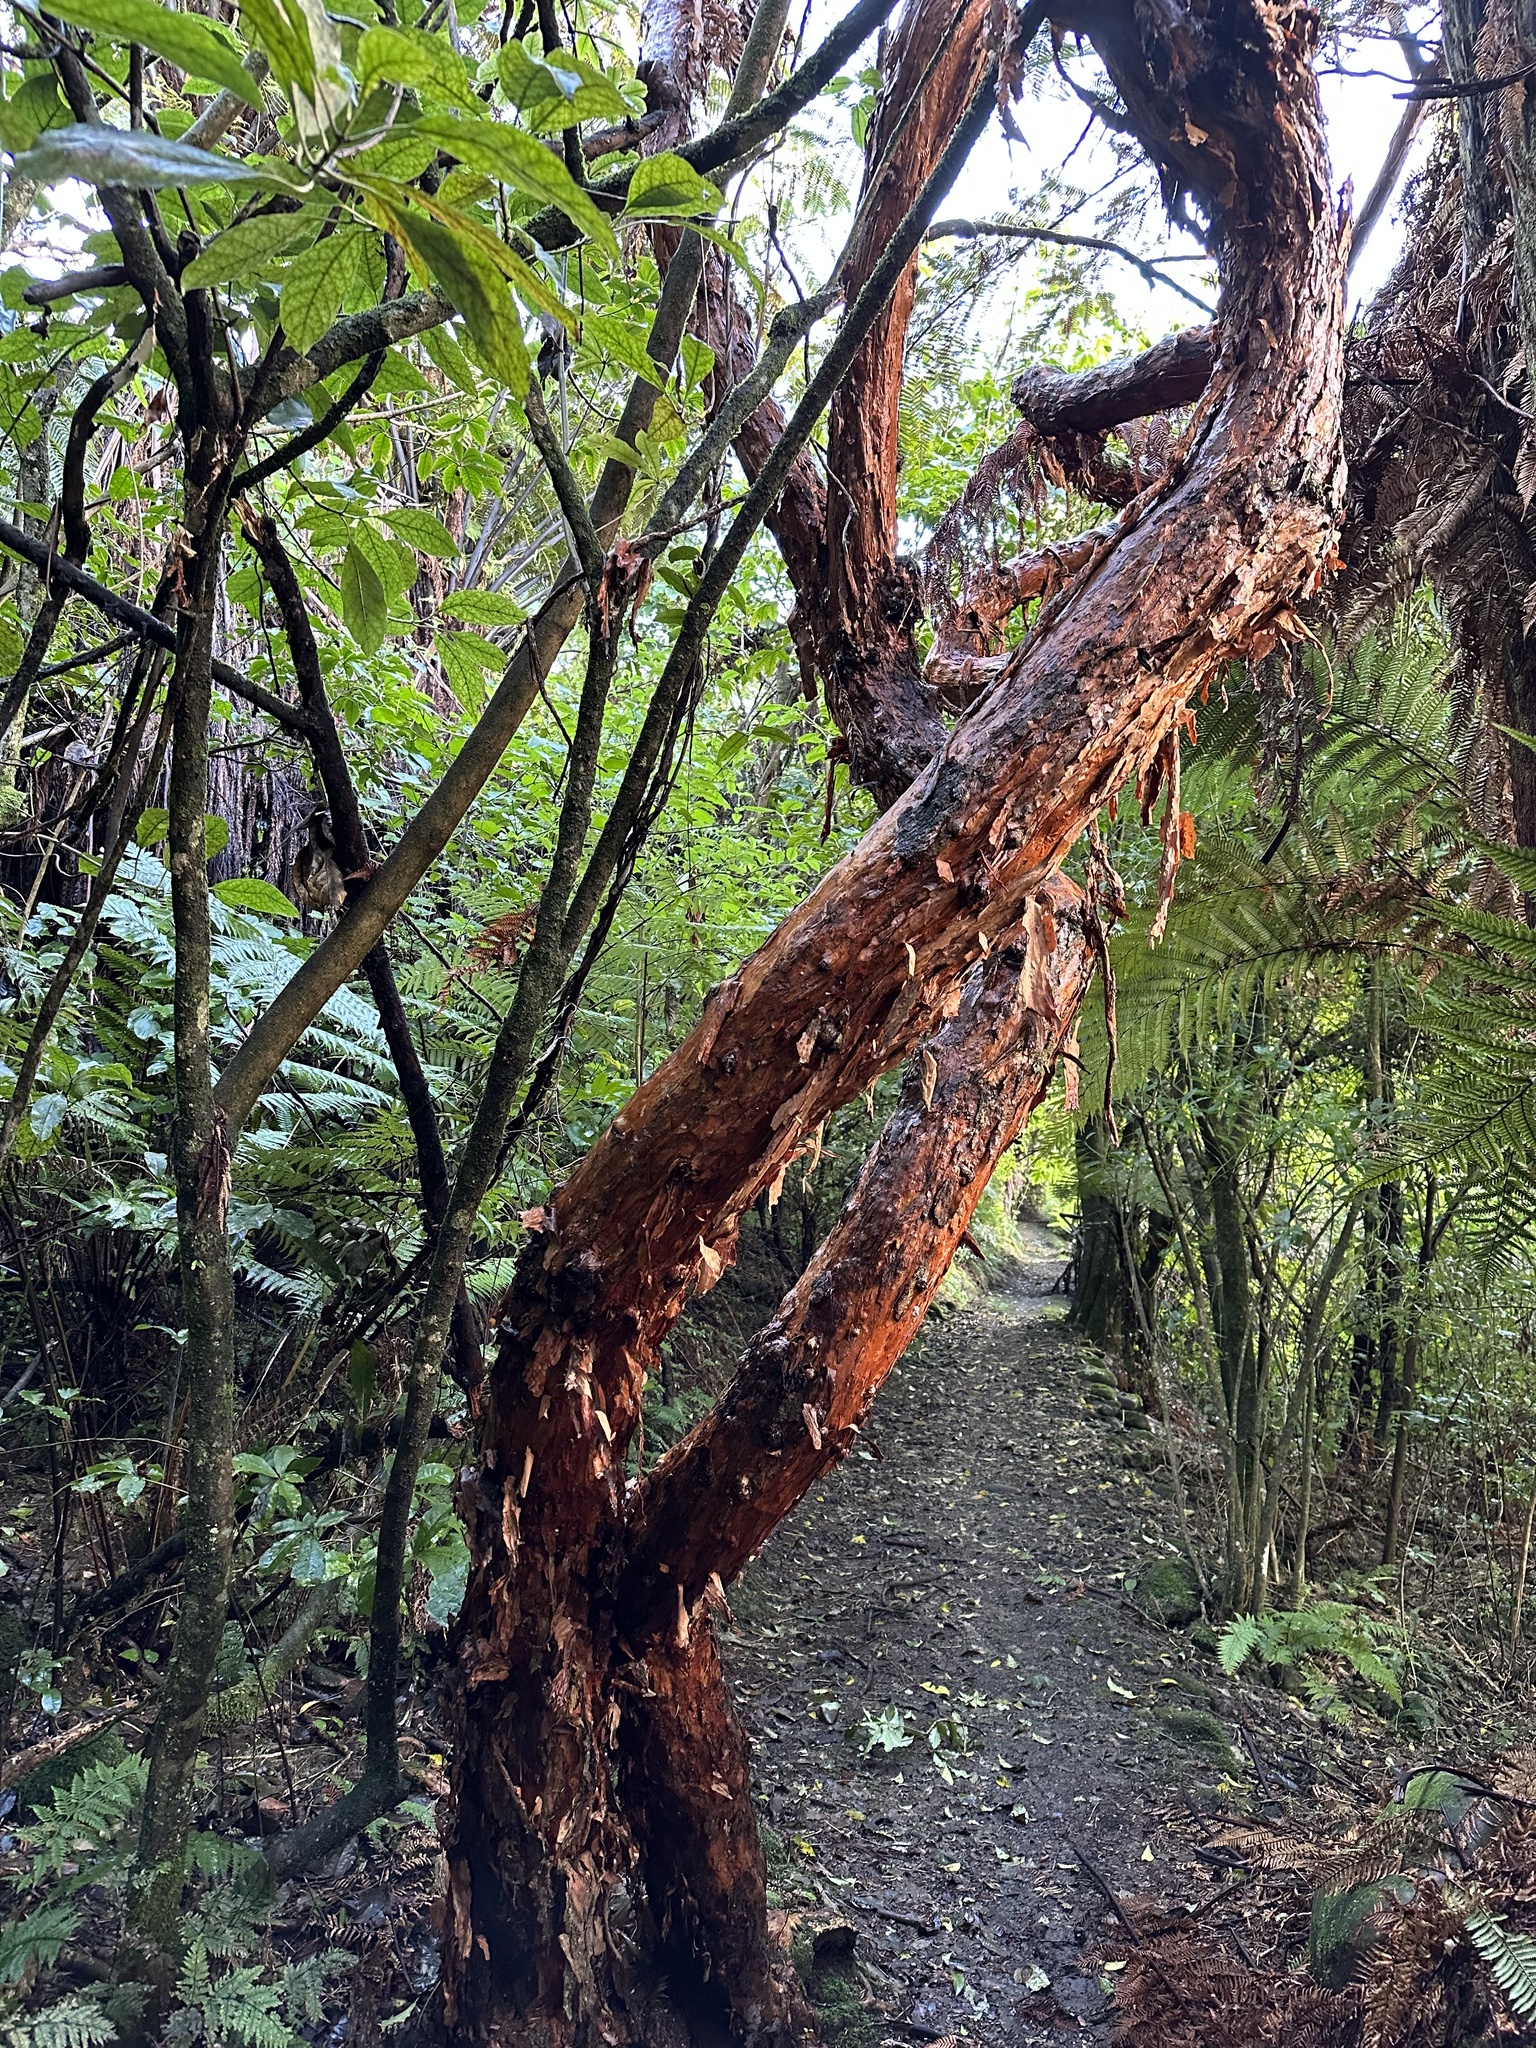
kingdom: Plantae
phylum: Tracheophyta
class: Magnoliopsida
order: Myrtales
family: Onagraceae
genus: Fuchsia
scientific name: Fuchsia excorticata
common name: Tree fuchsia
